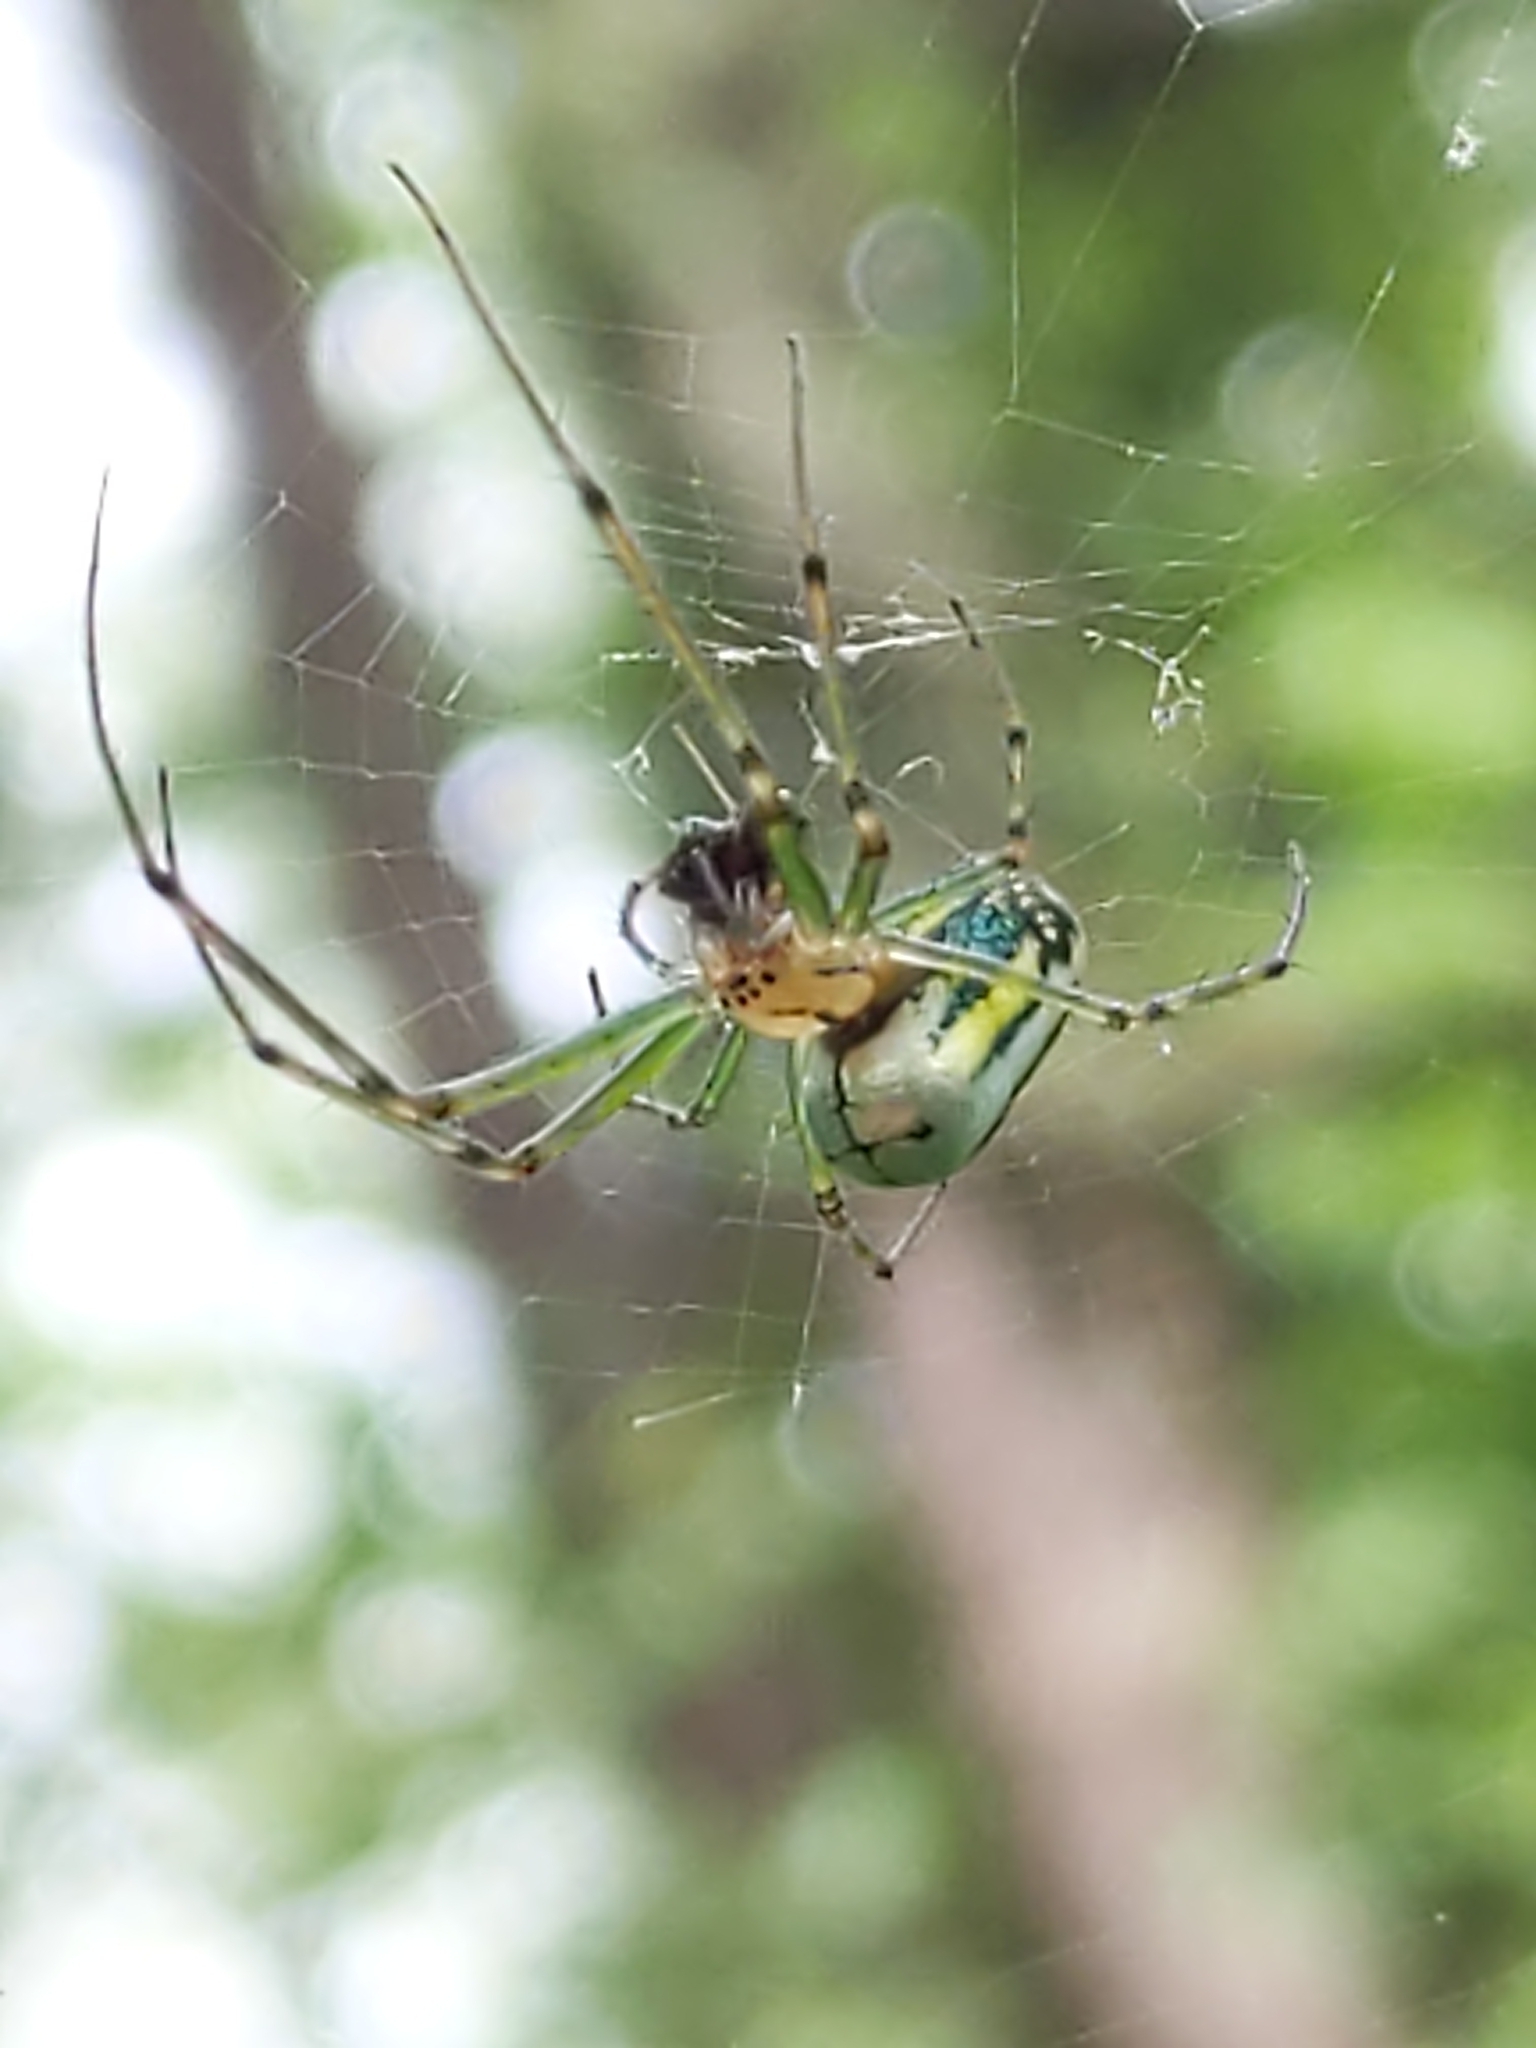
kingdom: Animalia
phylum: Arthropoda
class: Arachnida
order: Araneae
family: Tetragnathidae
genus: Leucauge
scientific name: Leucauge venusta
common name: Longjawed orb weavers
